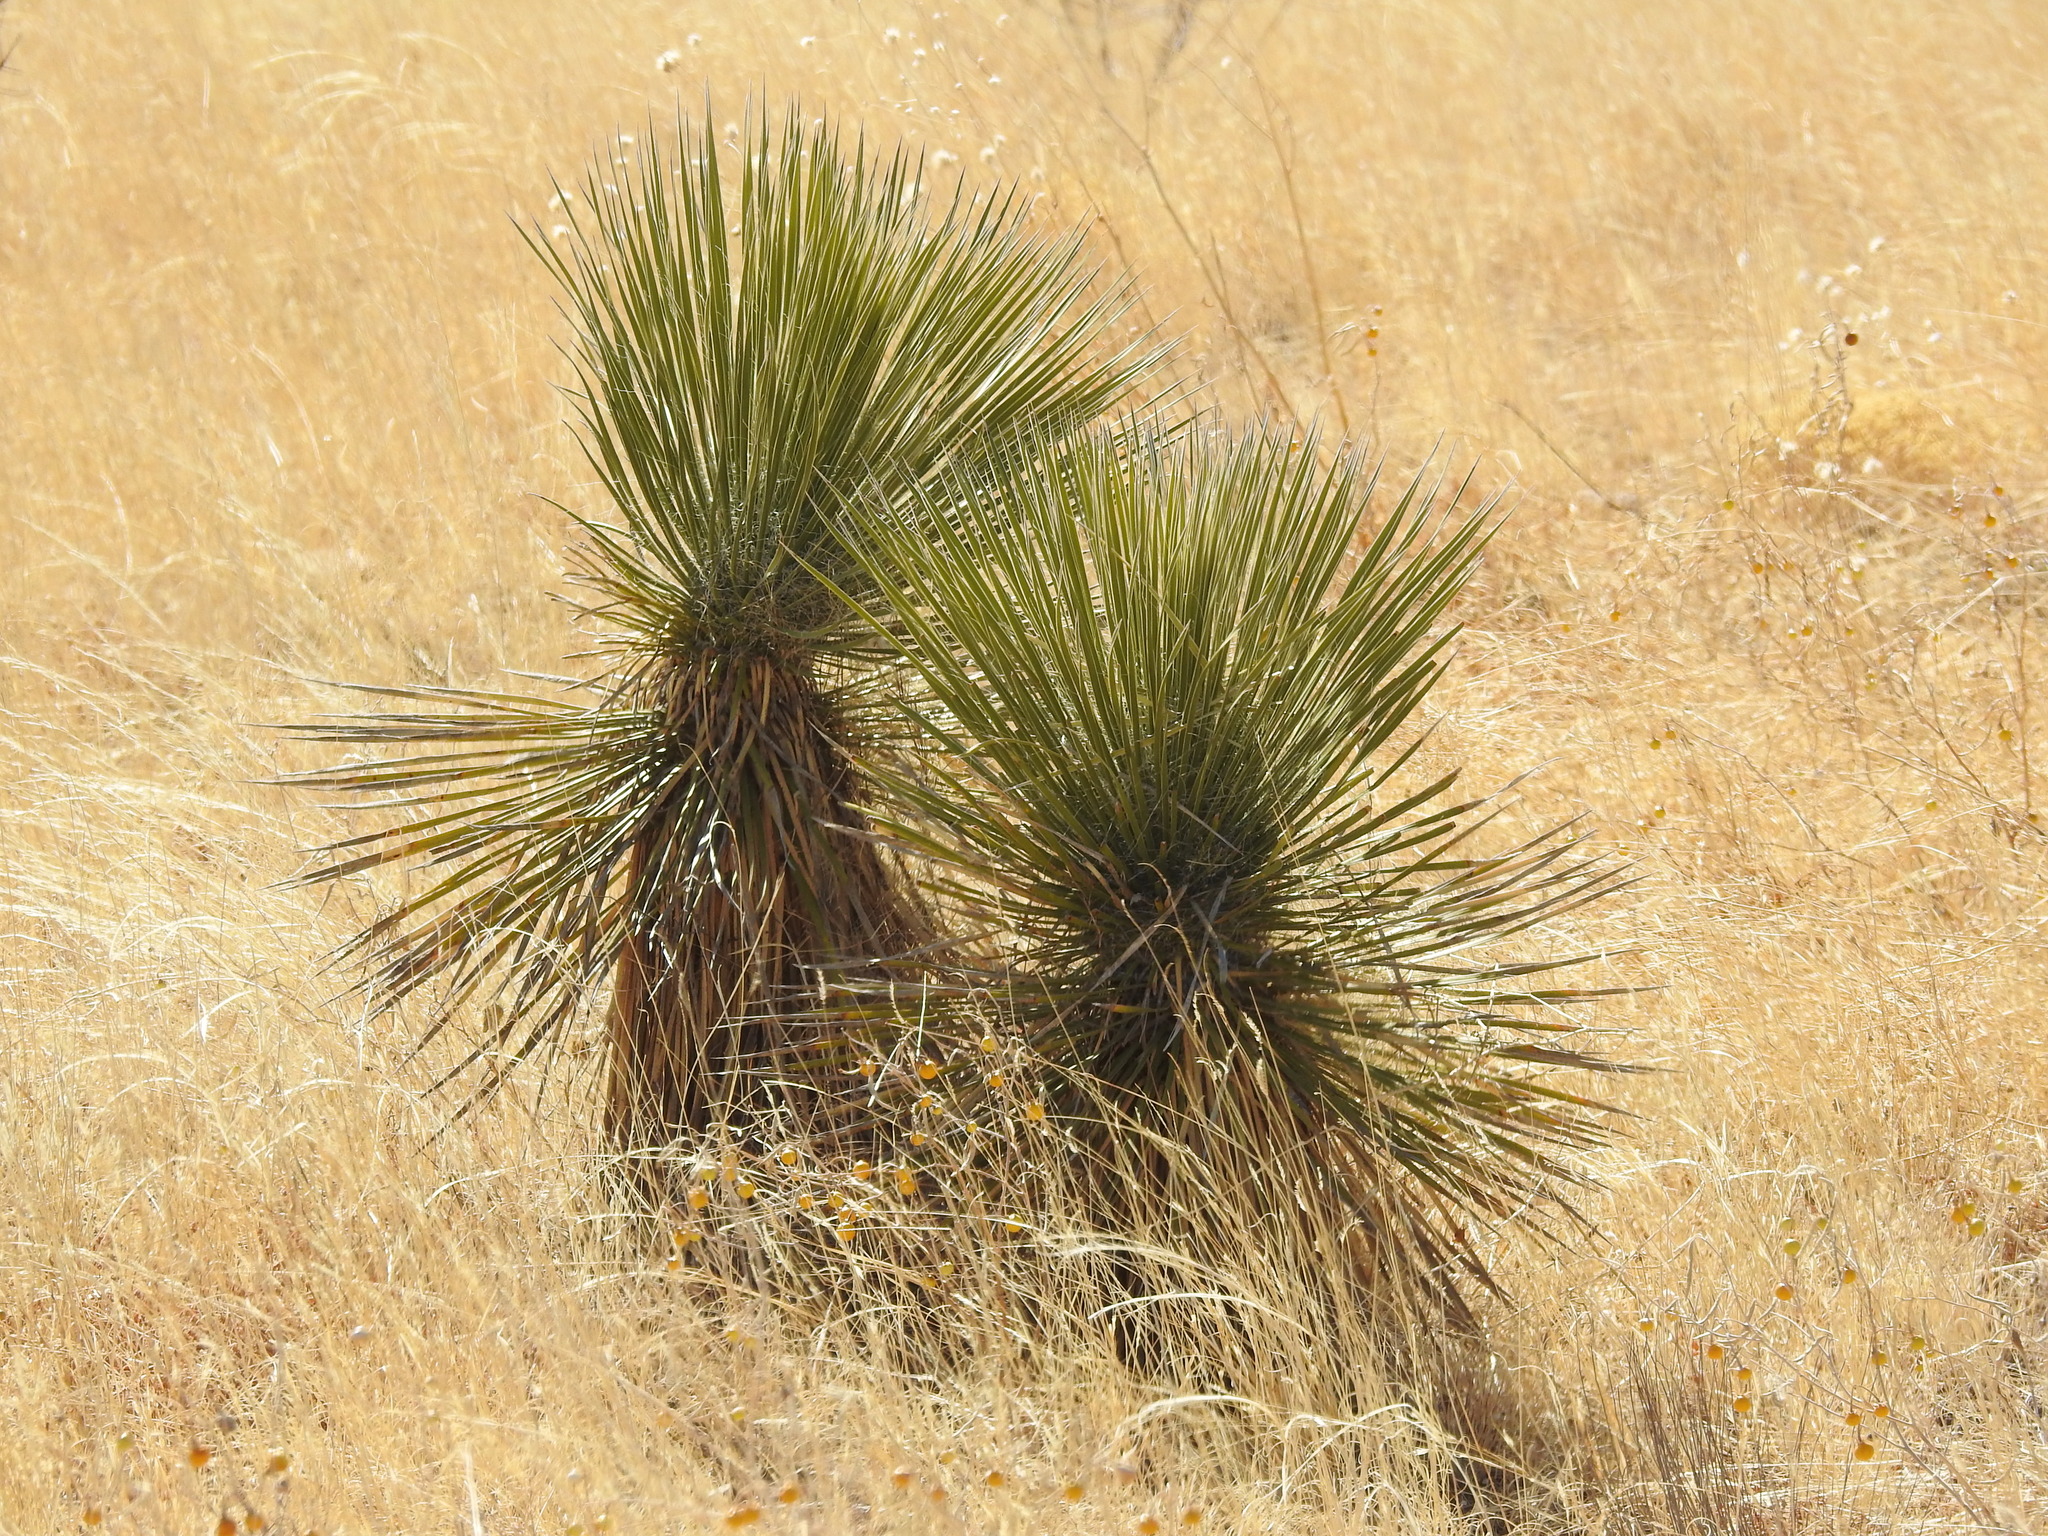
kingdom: Plantae
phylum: Tracheophyta
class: Liliopsida
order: Asparagales
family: Asparagaceae
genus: Yucca
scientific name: Yucca elata
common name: Palmella
